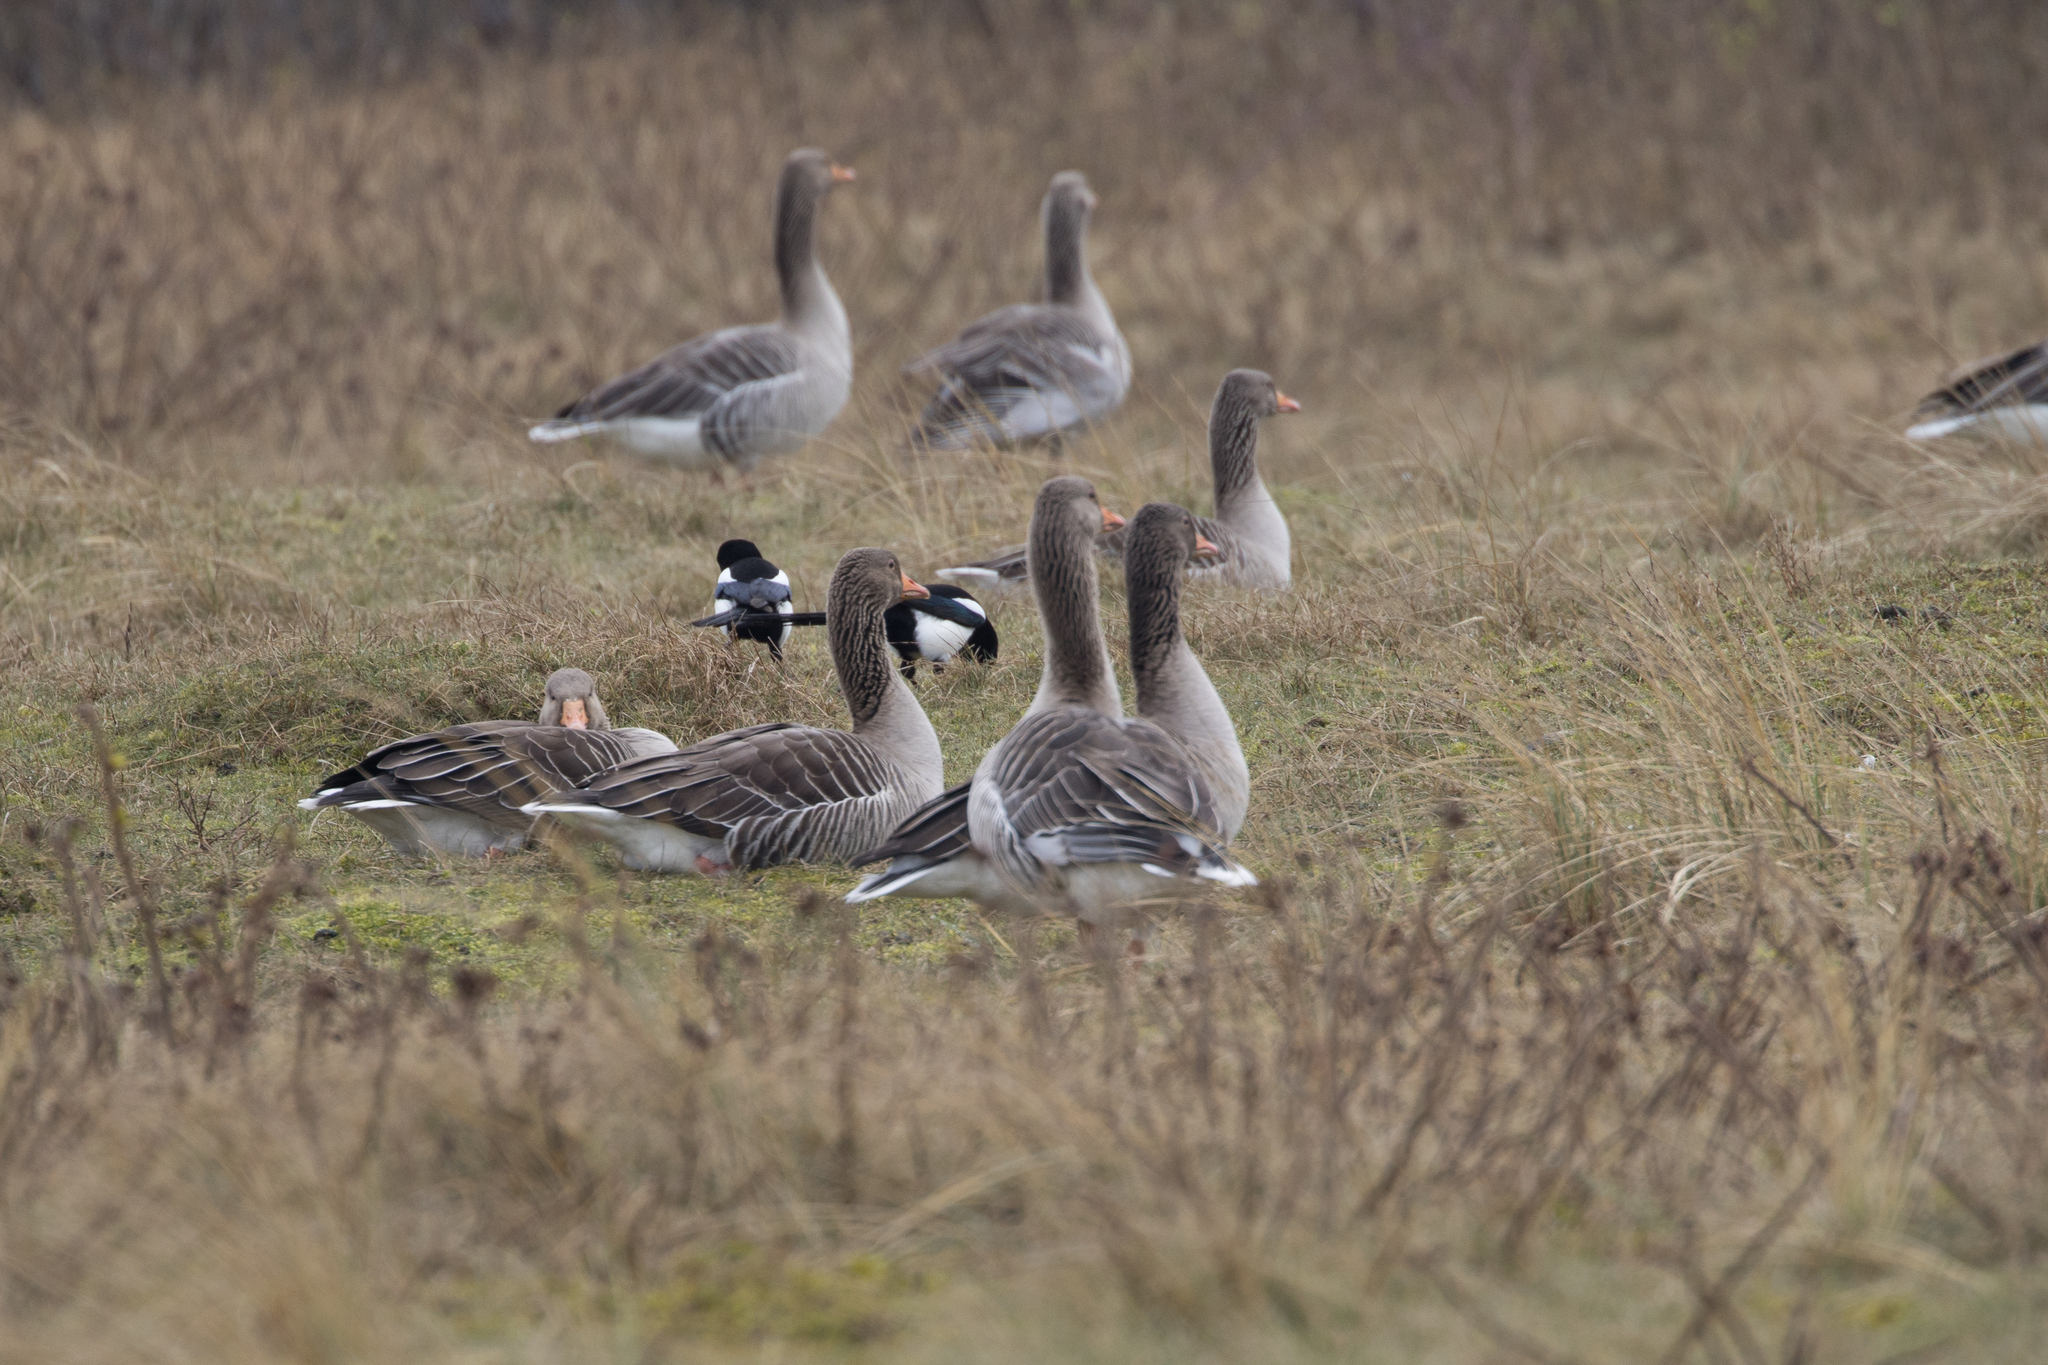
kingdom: Animalia
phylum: Chordata
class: Aves
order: Anseriformes
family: Anatidae
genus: Anser
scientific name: Anser anser
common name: Greylag goose
